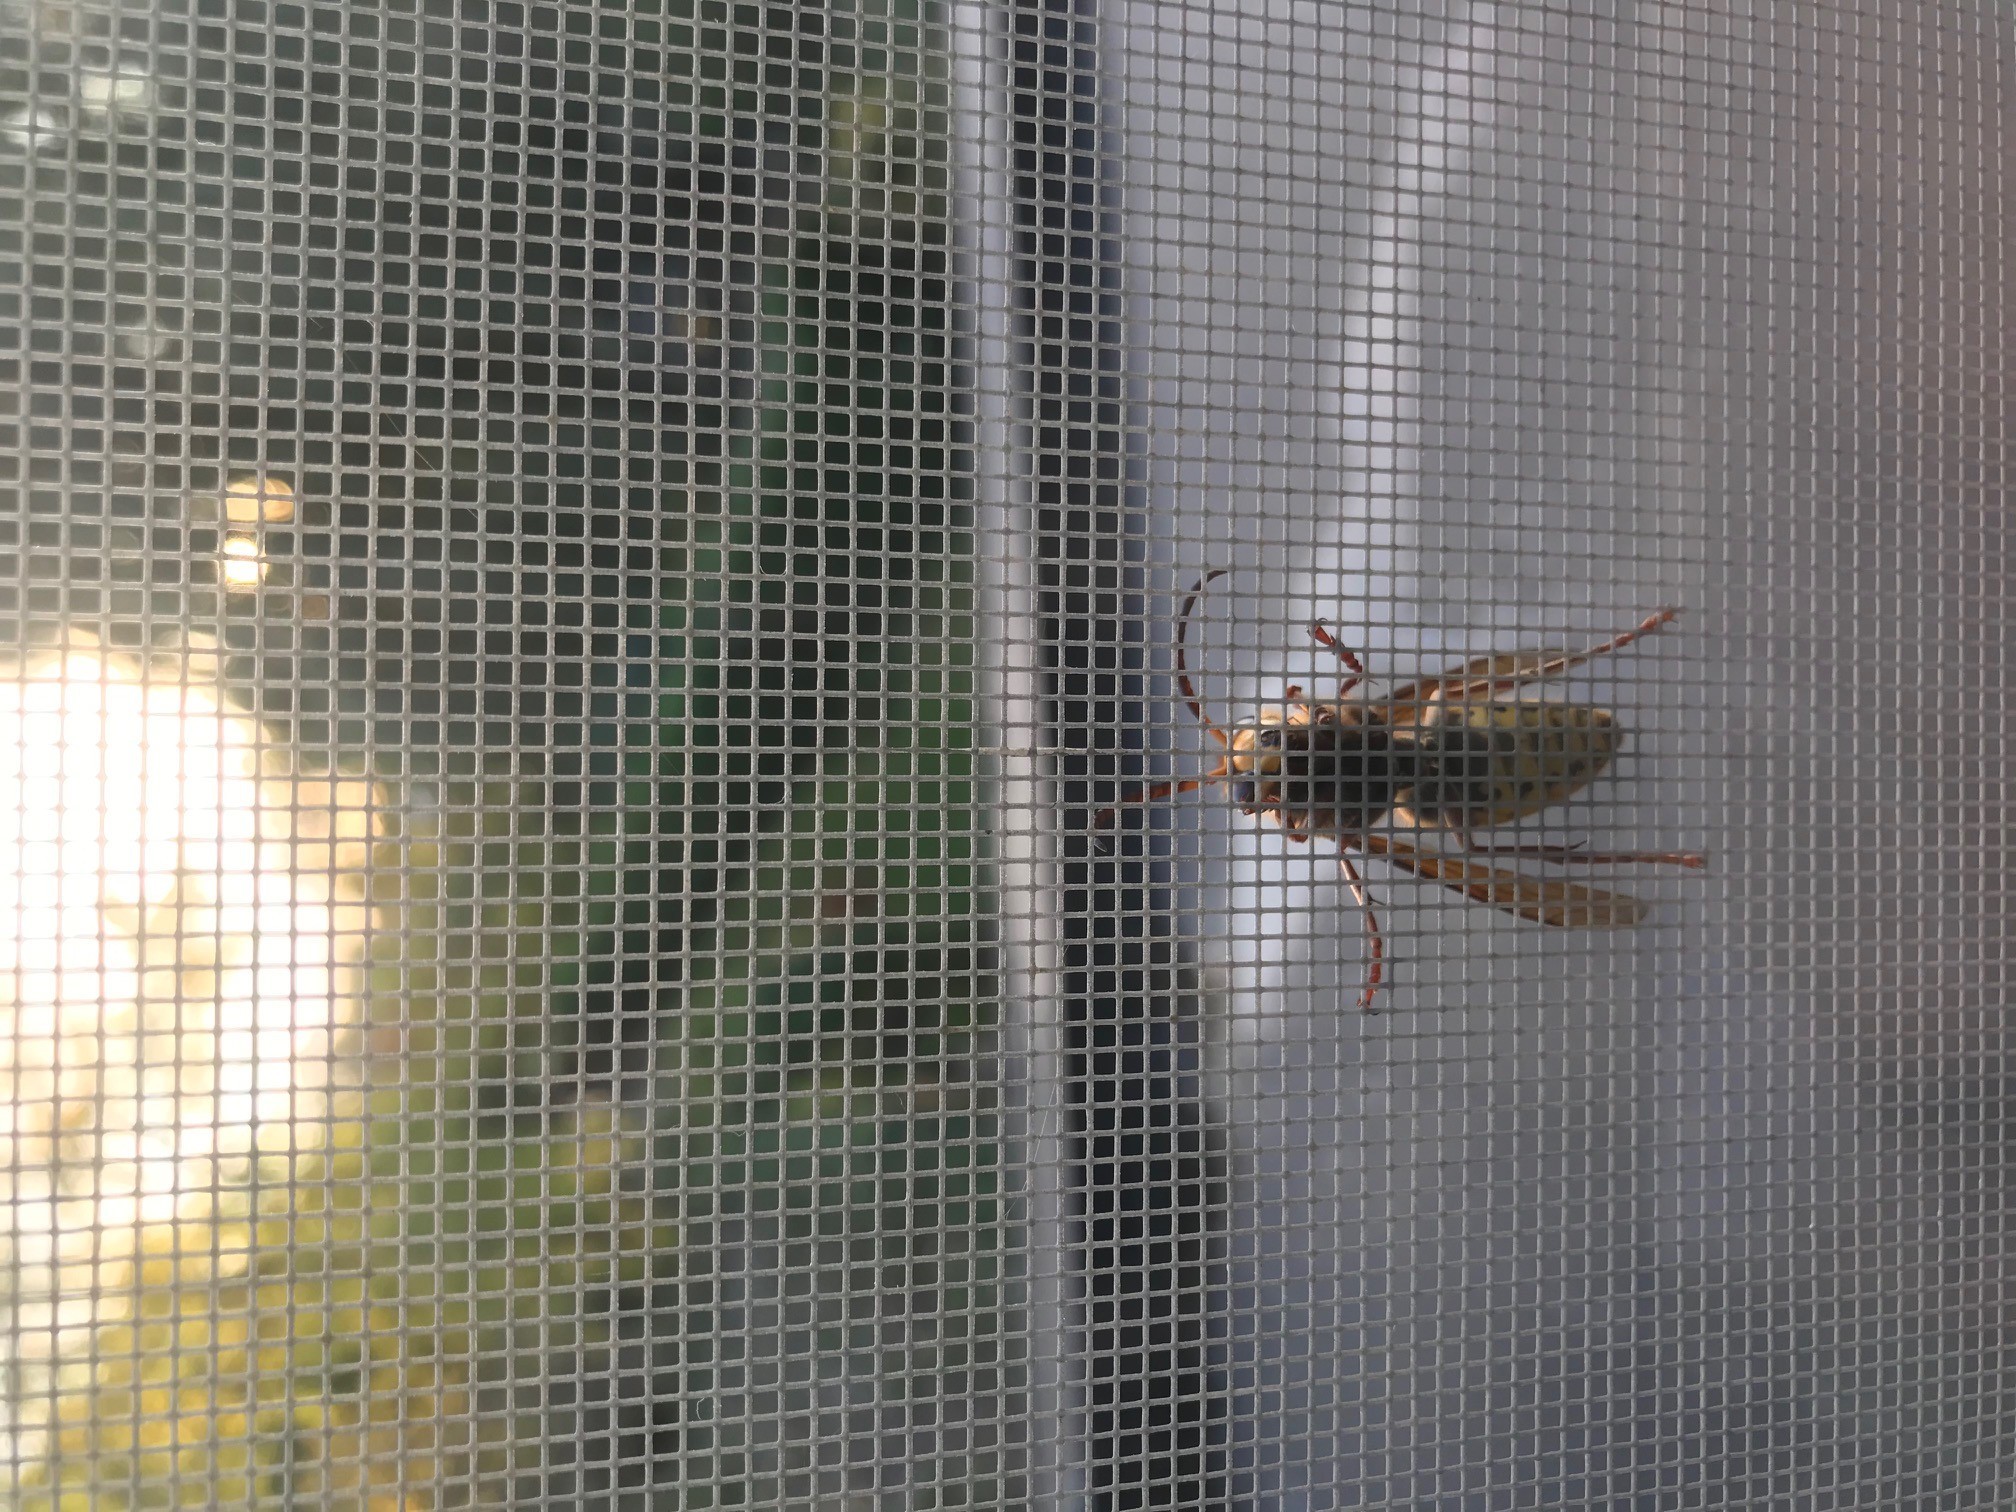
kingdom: Animalia
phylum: Arthropoda
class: Insecta
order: Hymenoptera
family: Vespidae
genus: Vespa
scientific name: Vespa crabro
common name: Hornet
